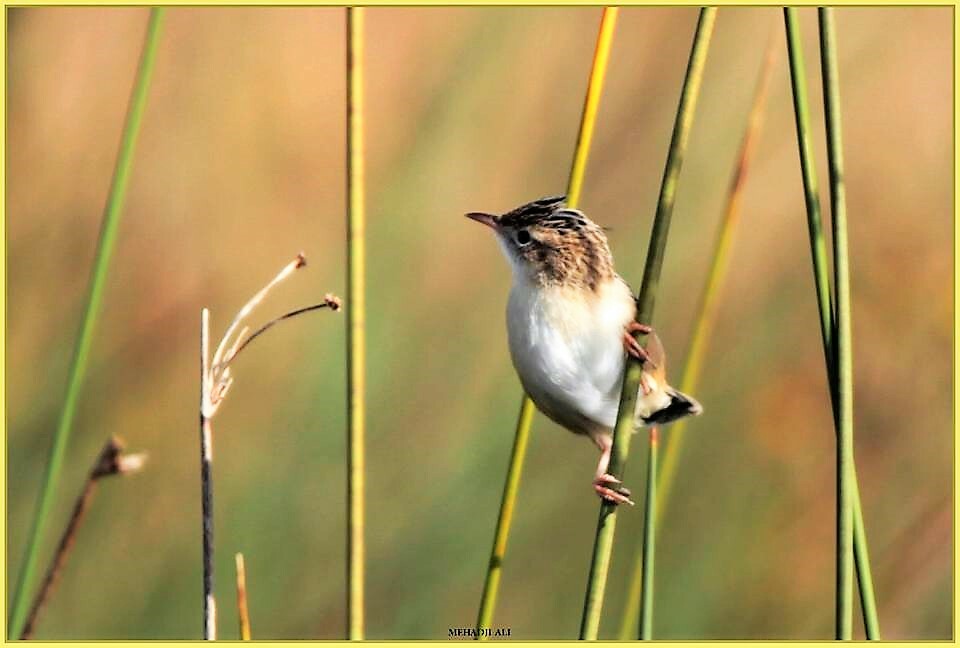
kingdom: Animalia
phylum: Chordata
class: Aves
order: Passeriformes
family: Cisticolidae
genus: Cisticola
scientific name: Cisticola juncidis
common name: Zitting cisticola
